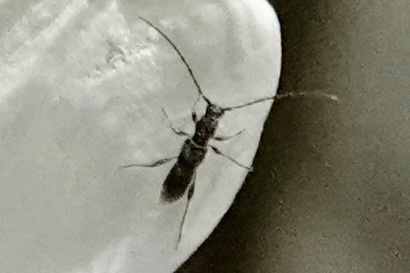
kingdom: Animalia
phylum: Arthropoda
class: Insecta
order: Coleoptera
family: Cerambycidae
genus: Molorchus
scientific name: Molorchus bimaculatus
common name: Bimaculate longhorn beetle
